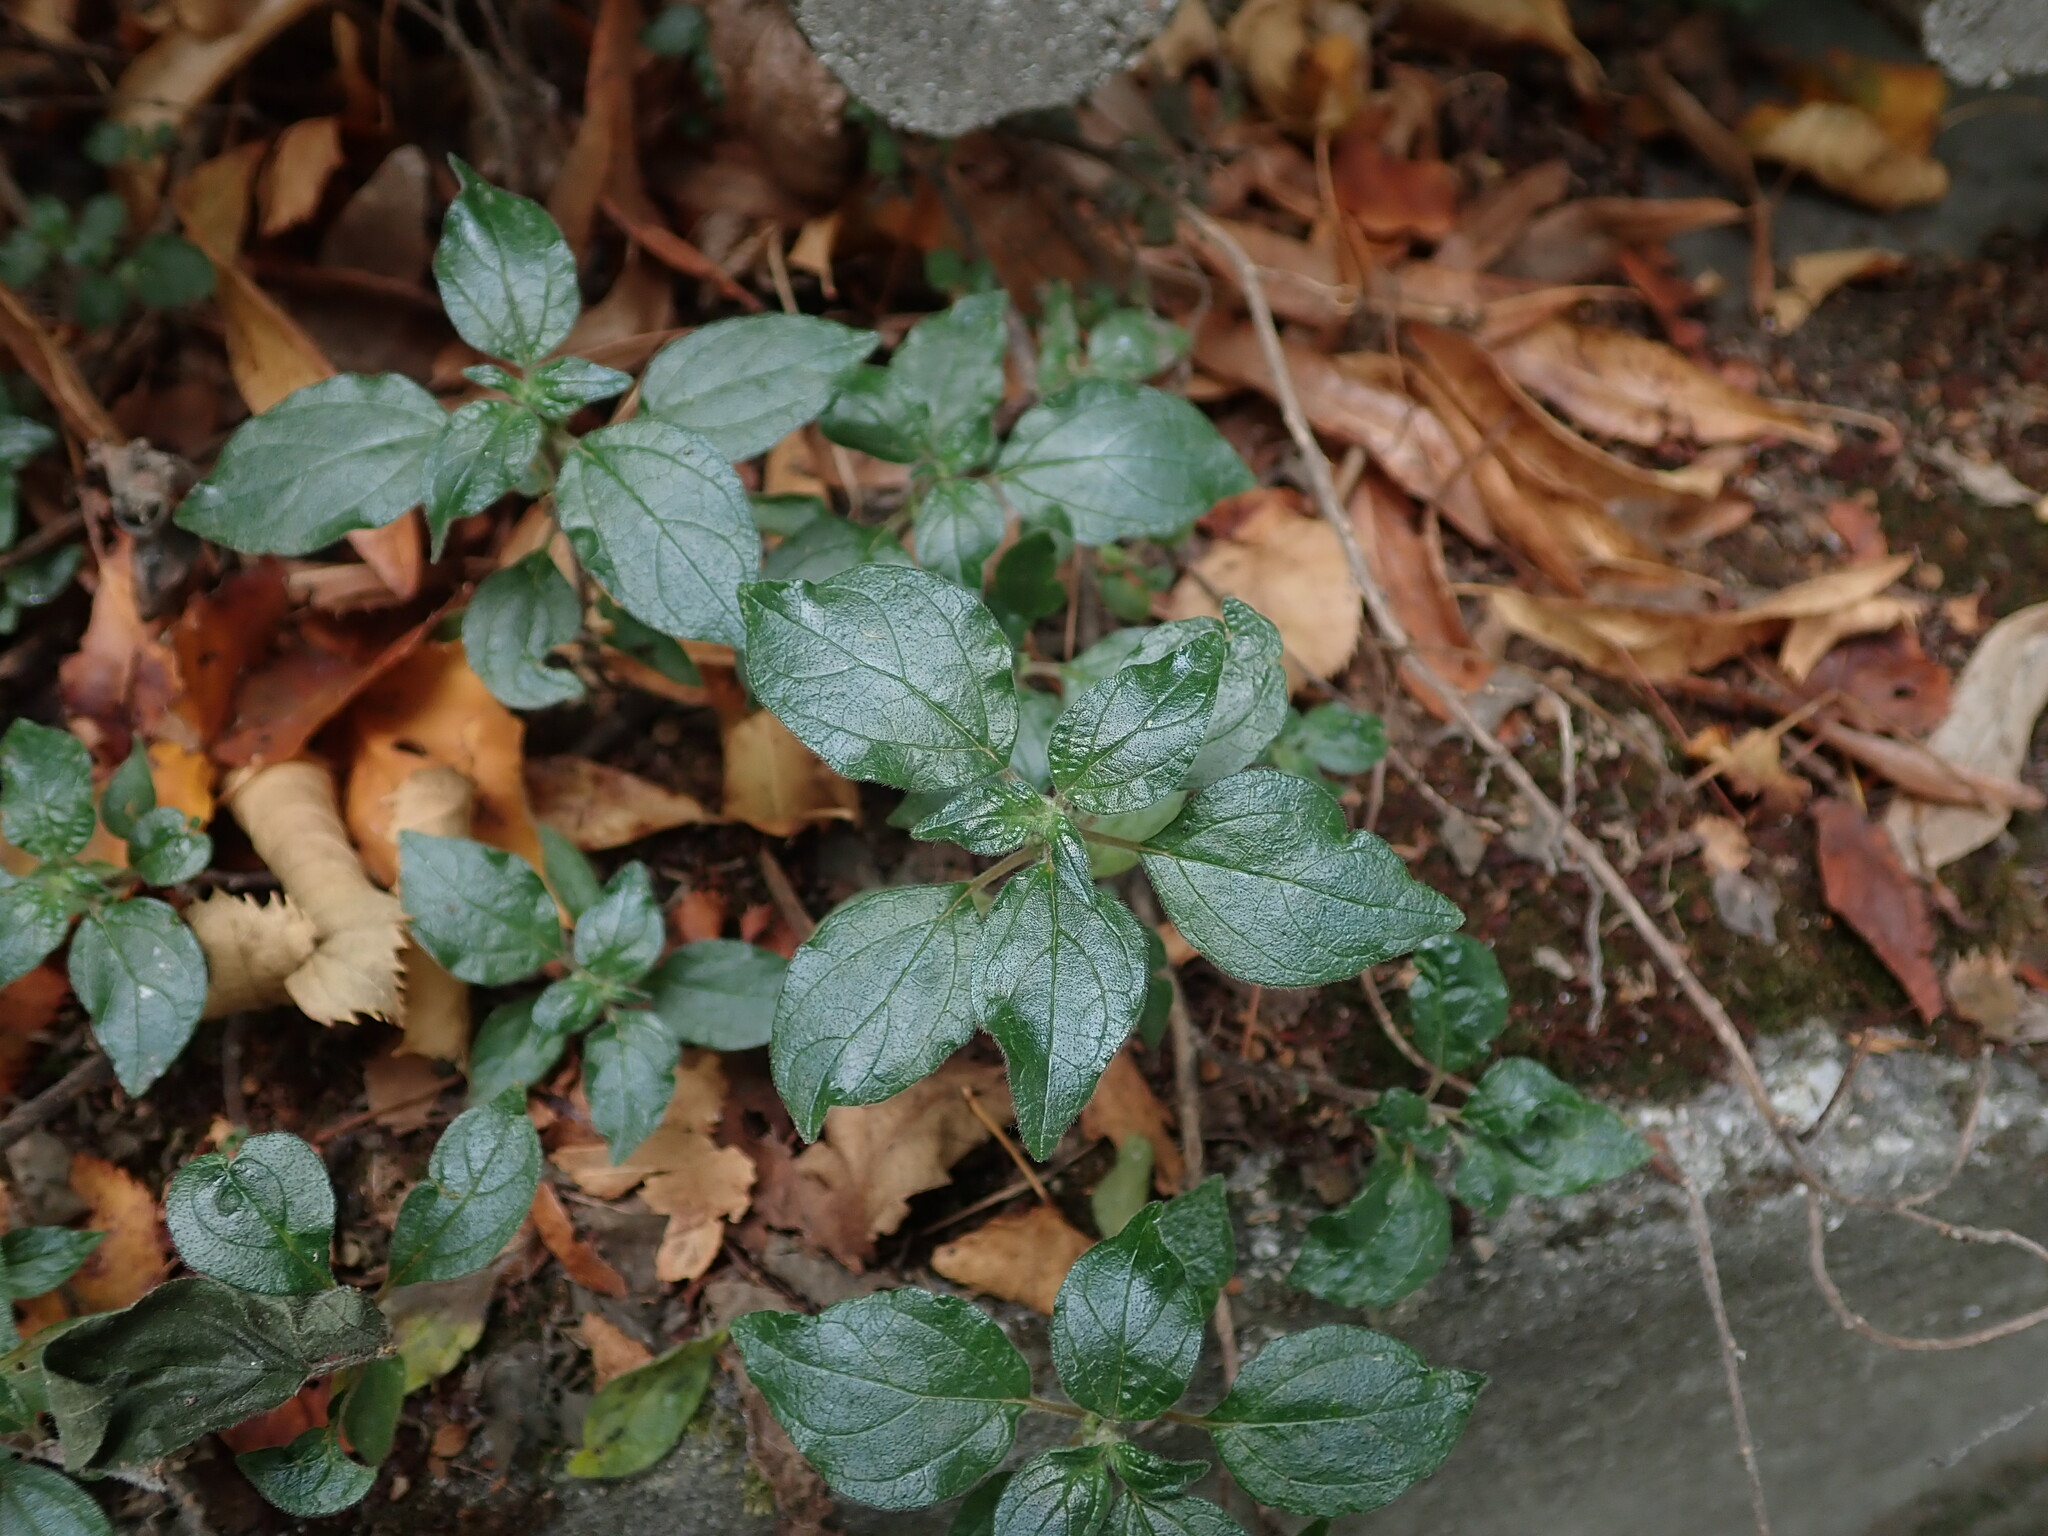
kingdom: Plantae
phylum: Tracheophyta
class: Magnoliopsida
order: Rosales
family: Urticaceae
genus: Parietaria
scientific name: Parietaria judaica
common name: Pellitory-of-the-wall
